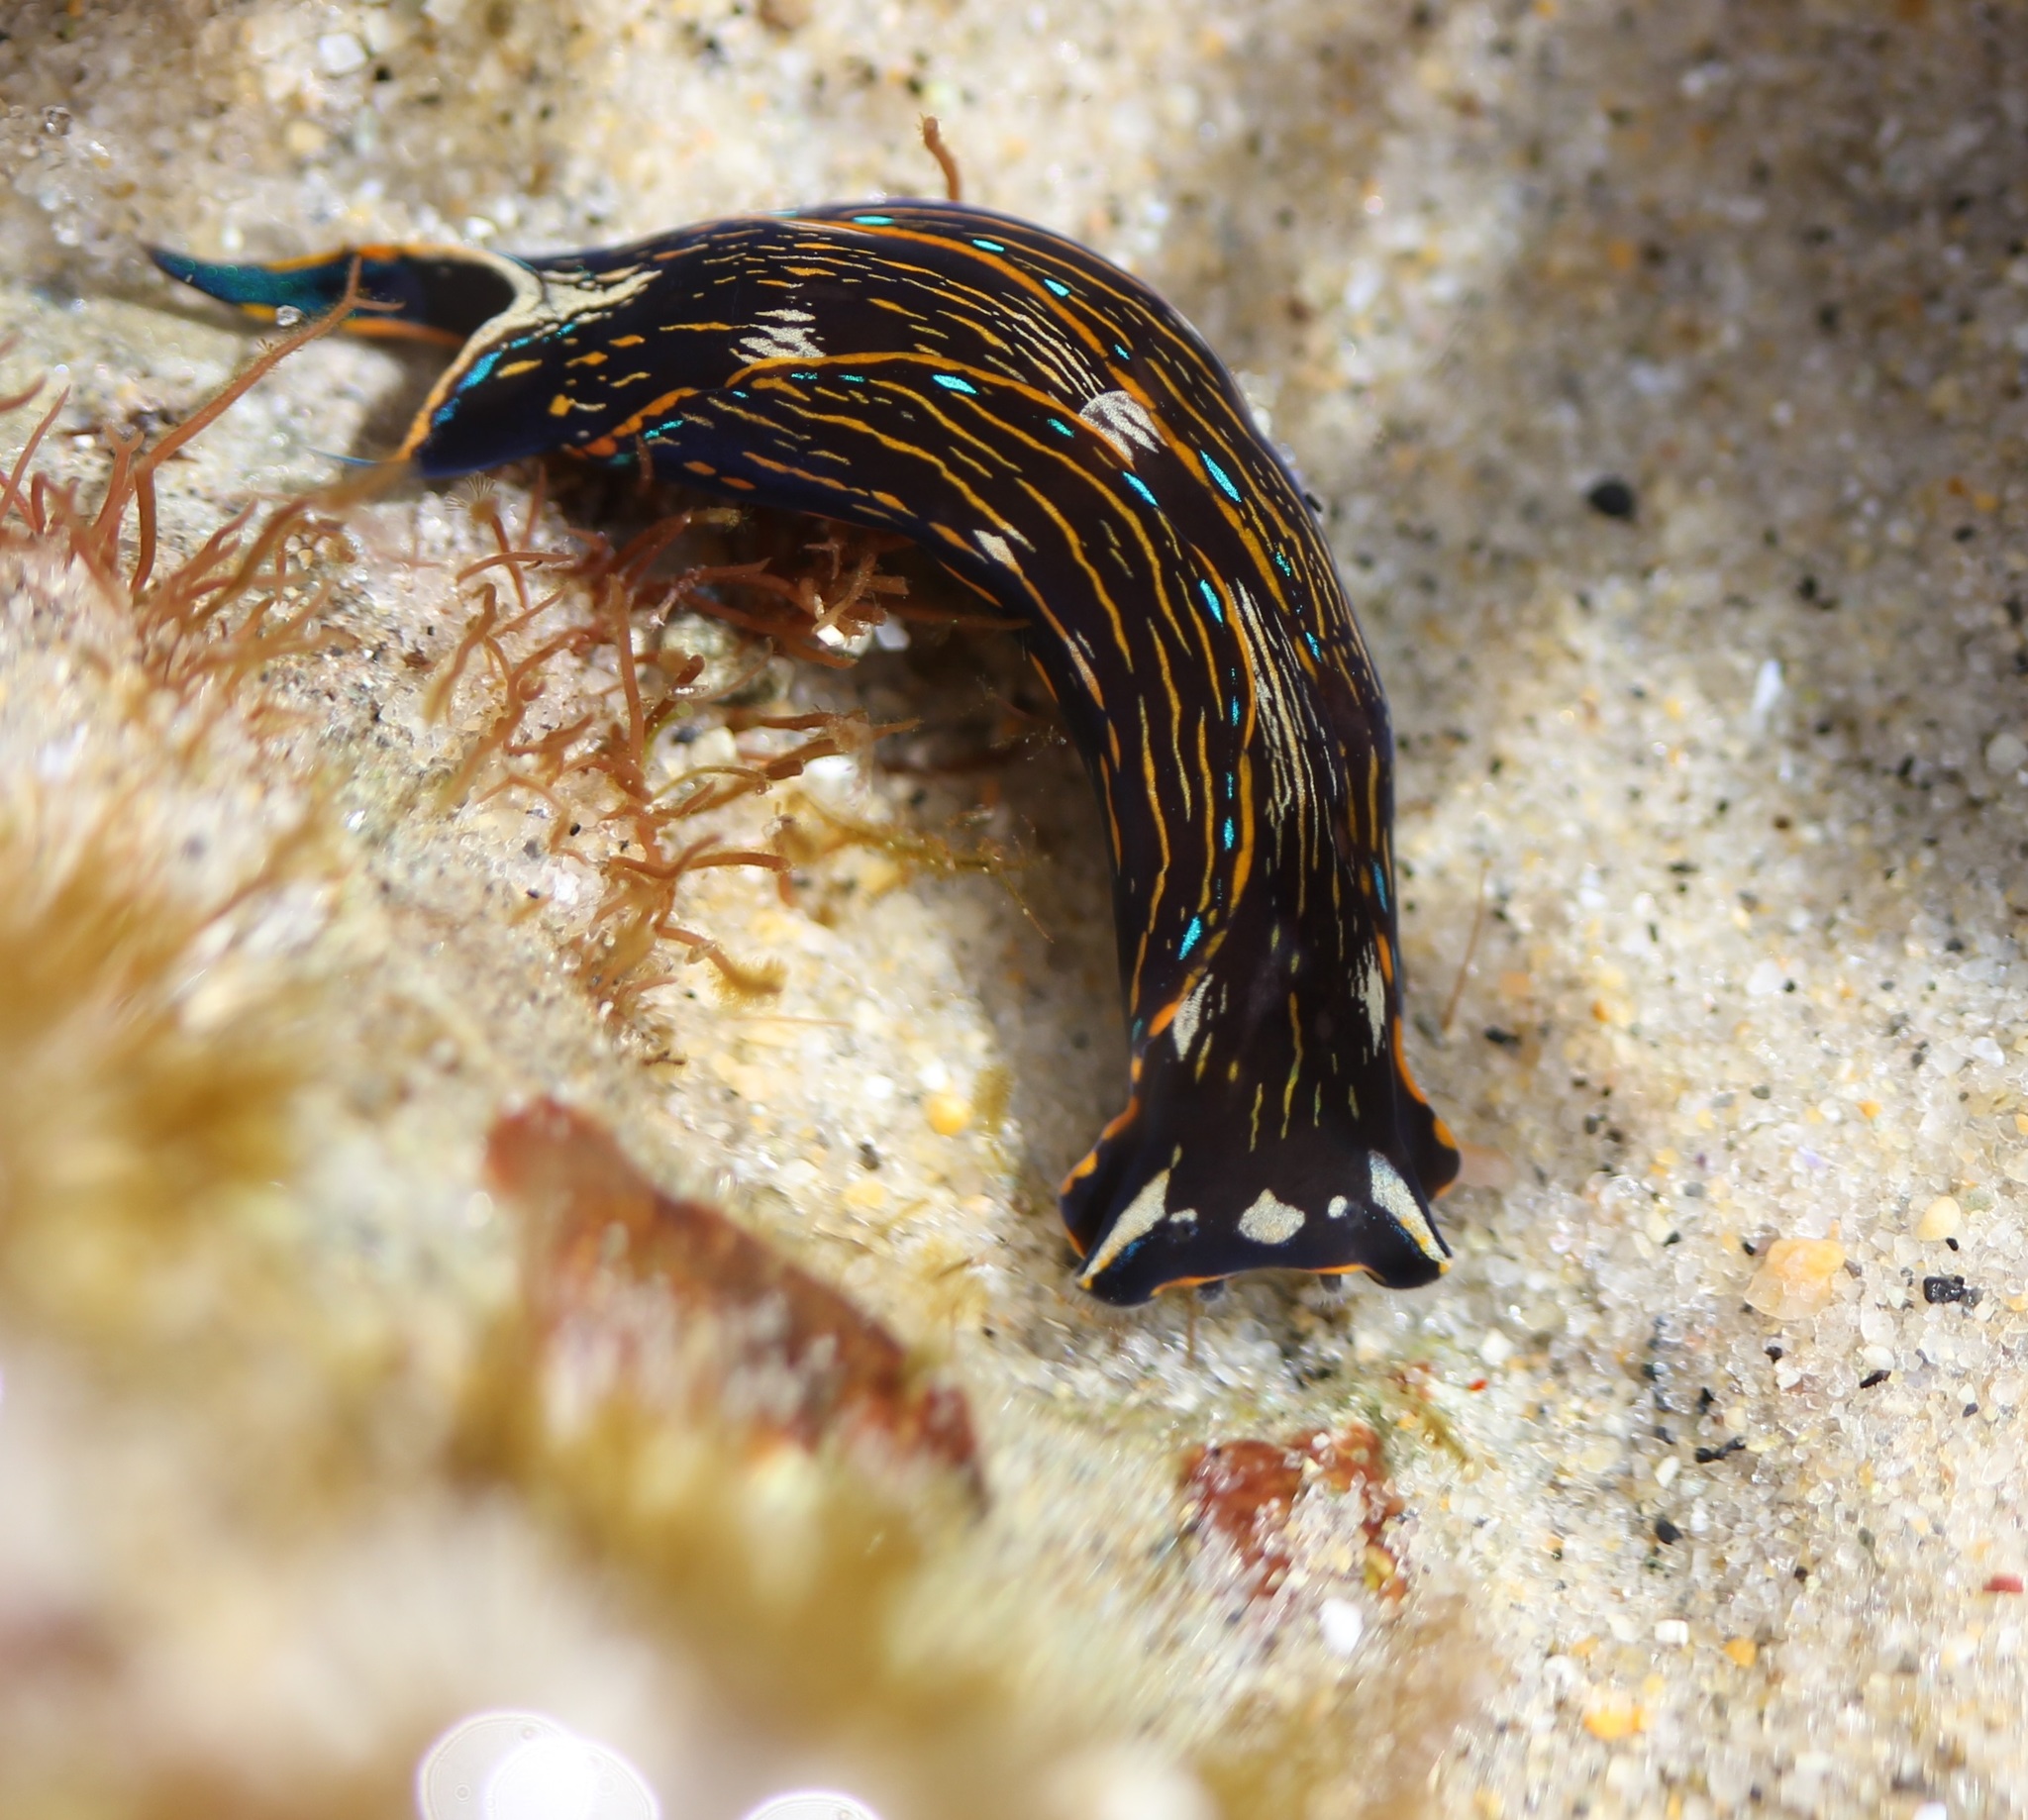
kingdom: Animalia
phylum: Mollusca
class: Gastropoda
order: Cephalaspidea
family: Aglajidae
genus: Navanax
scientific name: Navanax inermis
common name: California aglaja
